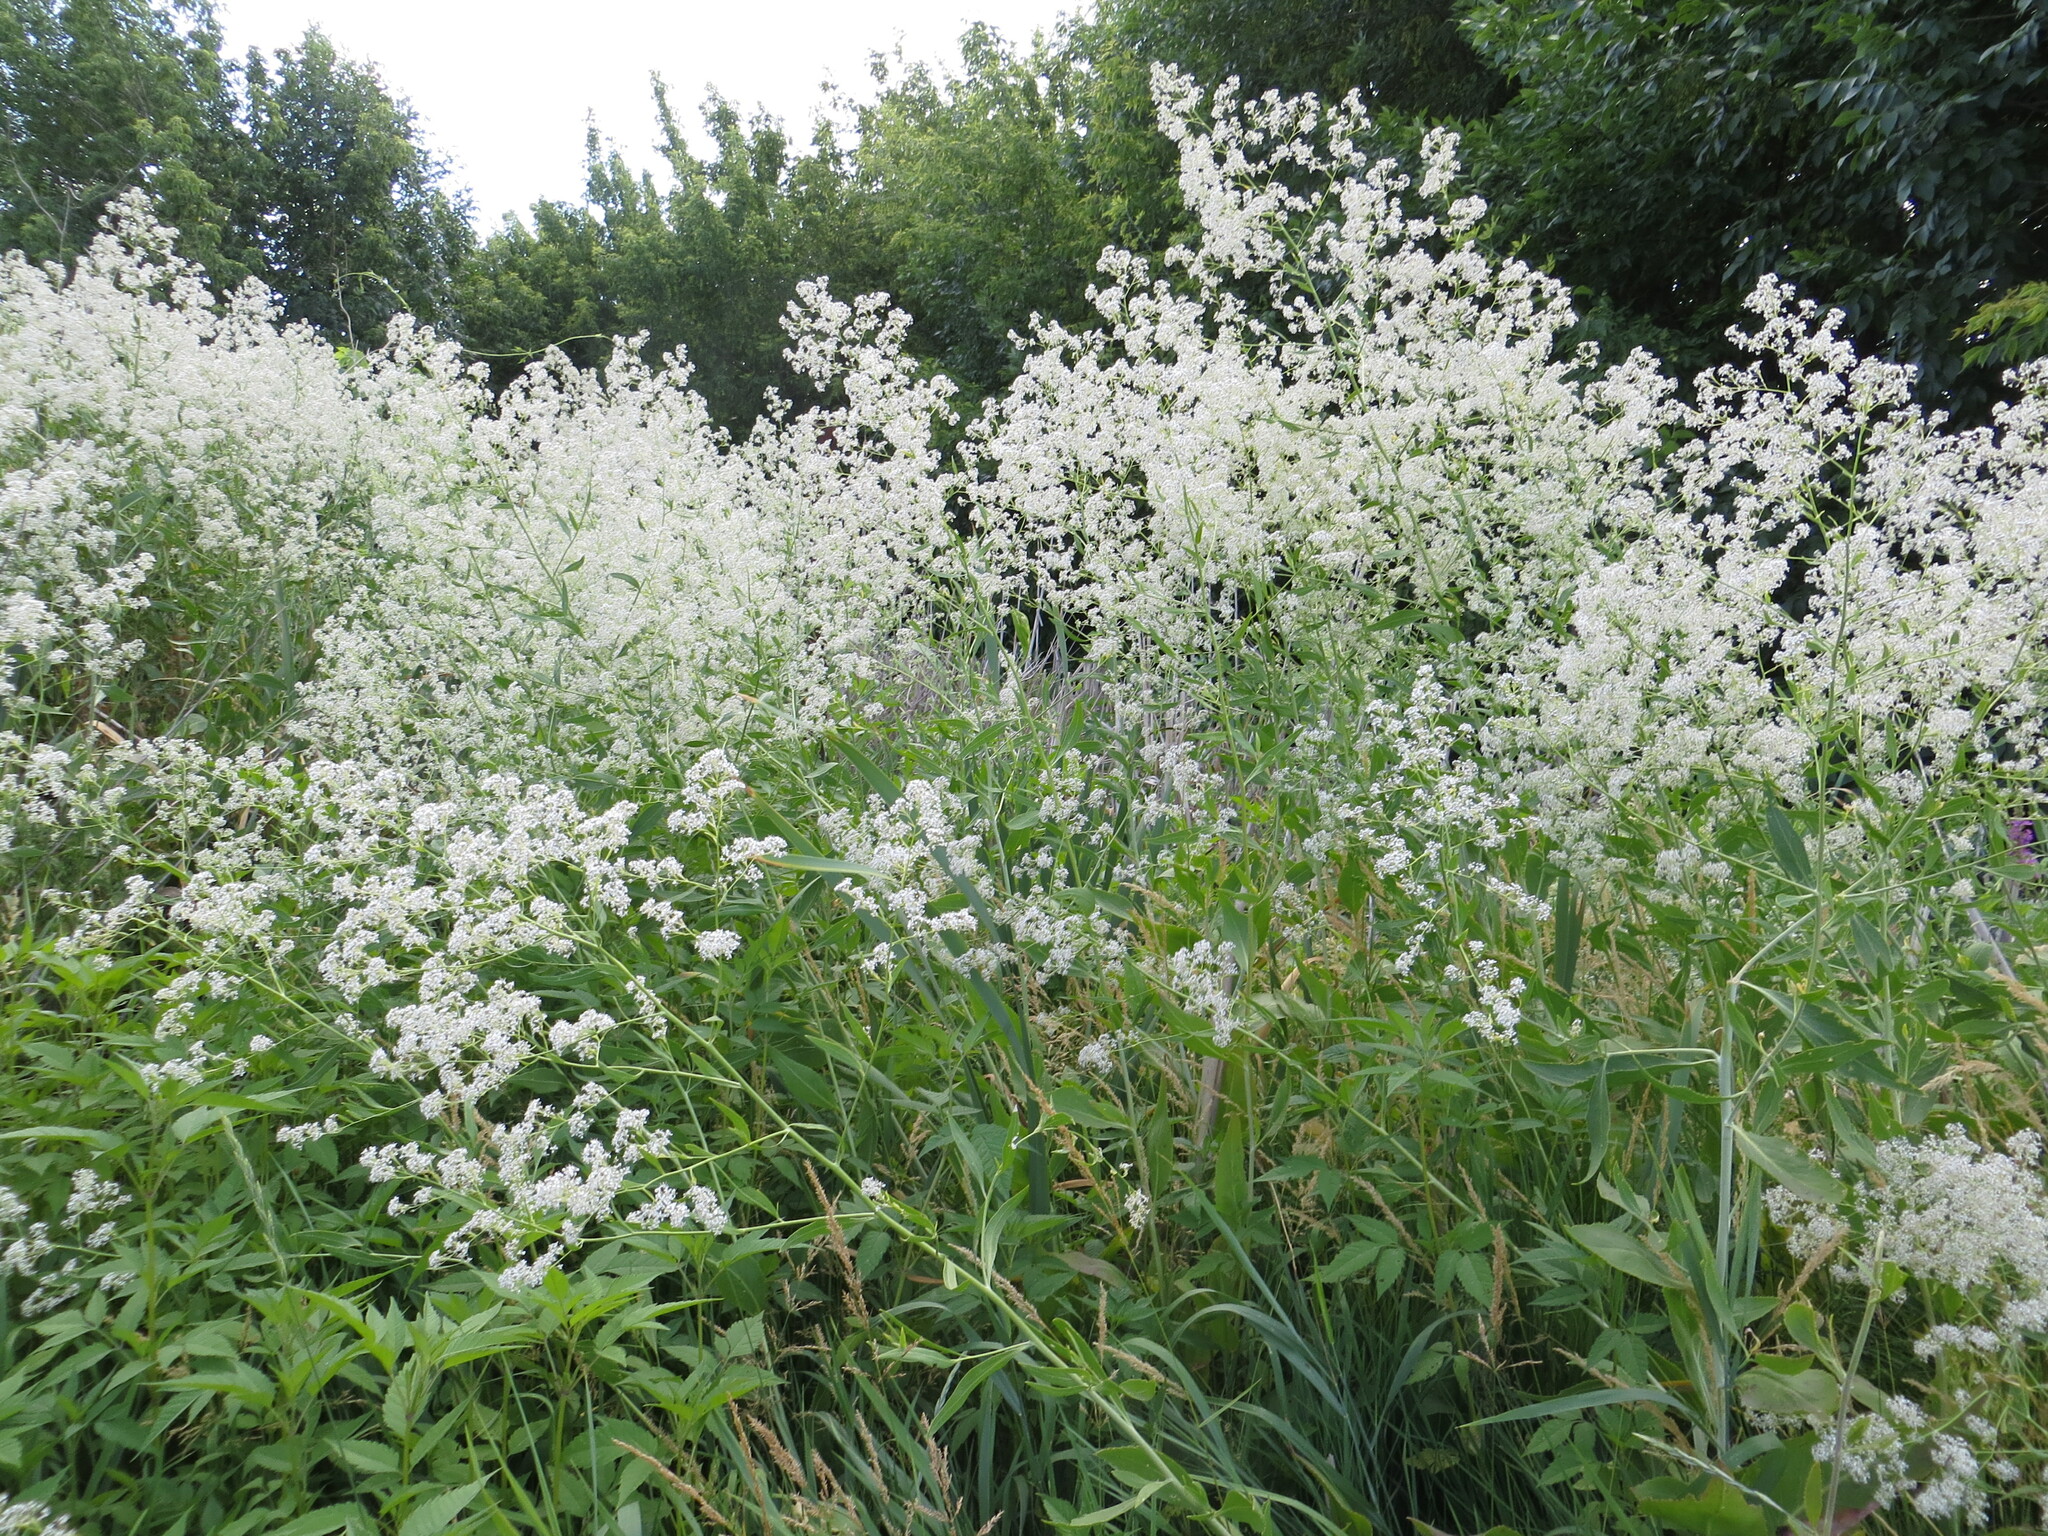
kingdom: Plantae
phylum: Tracheophyta
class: Magnoliopsida
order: Brassicales
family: Brassicaceae
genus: Lepidium
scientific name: Lepidium latifolium
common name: Dittander
